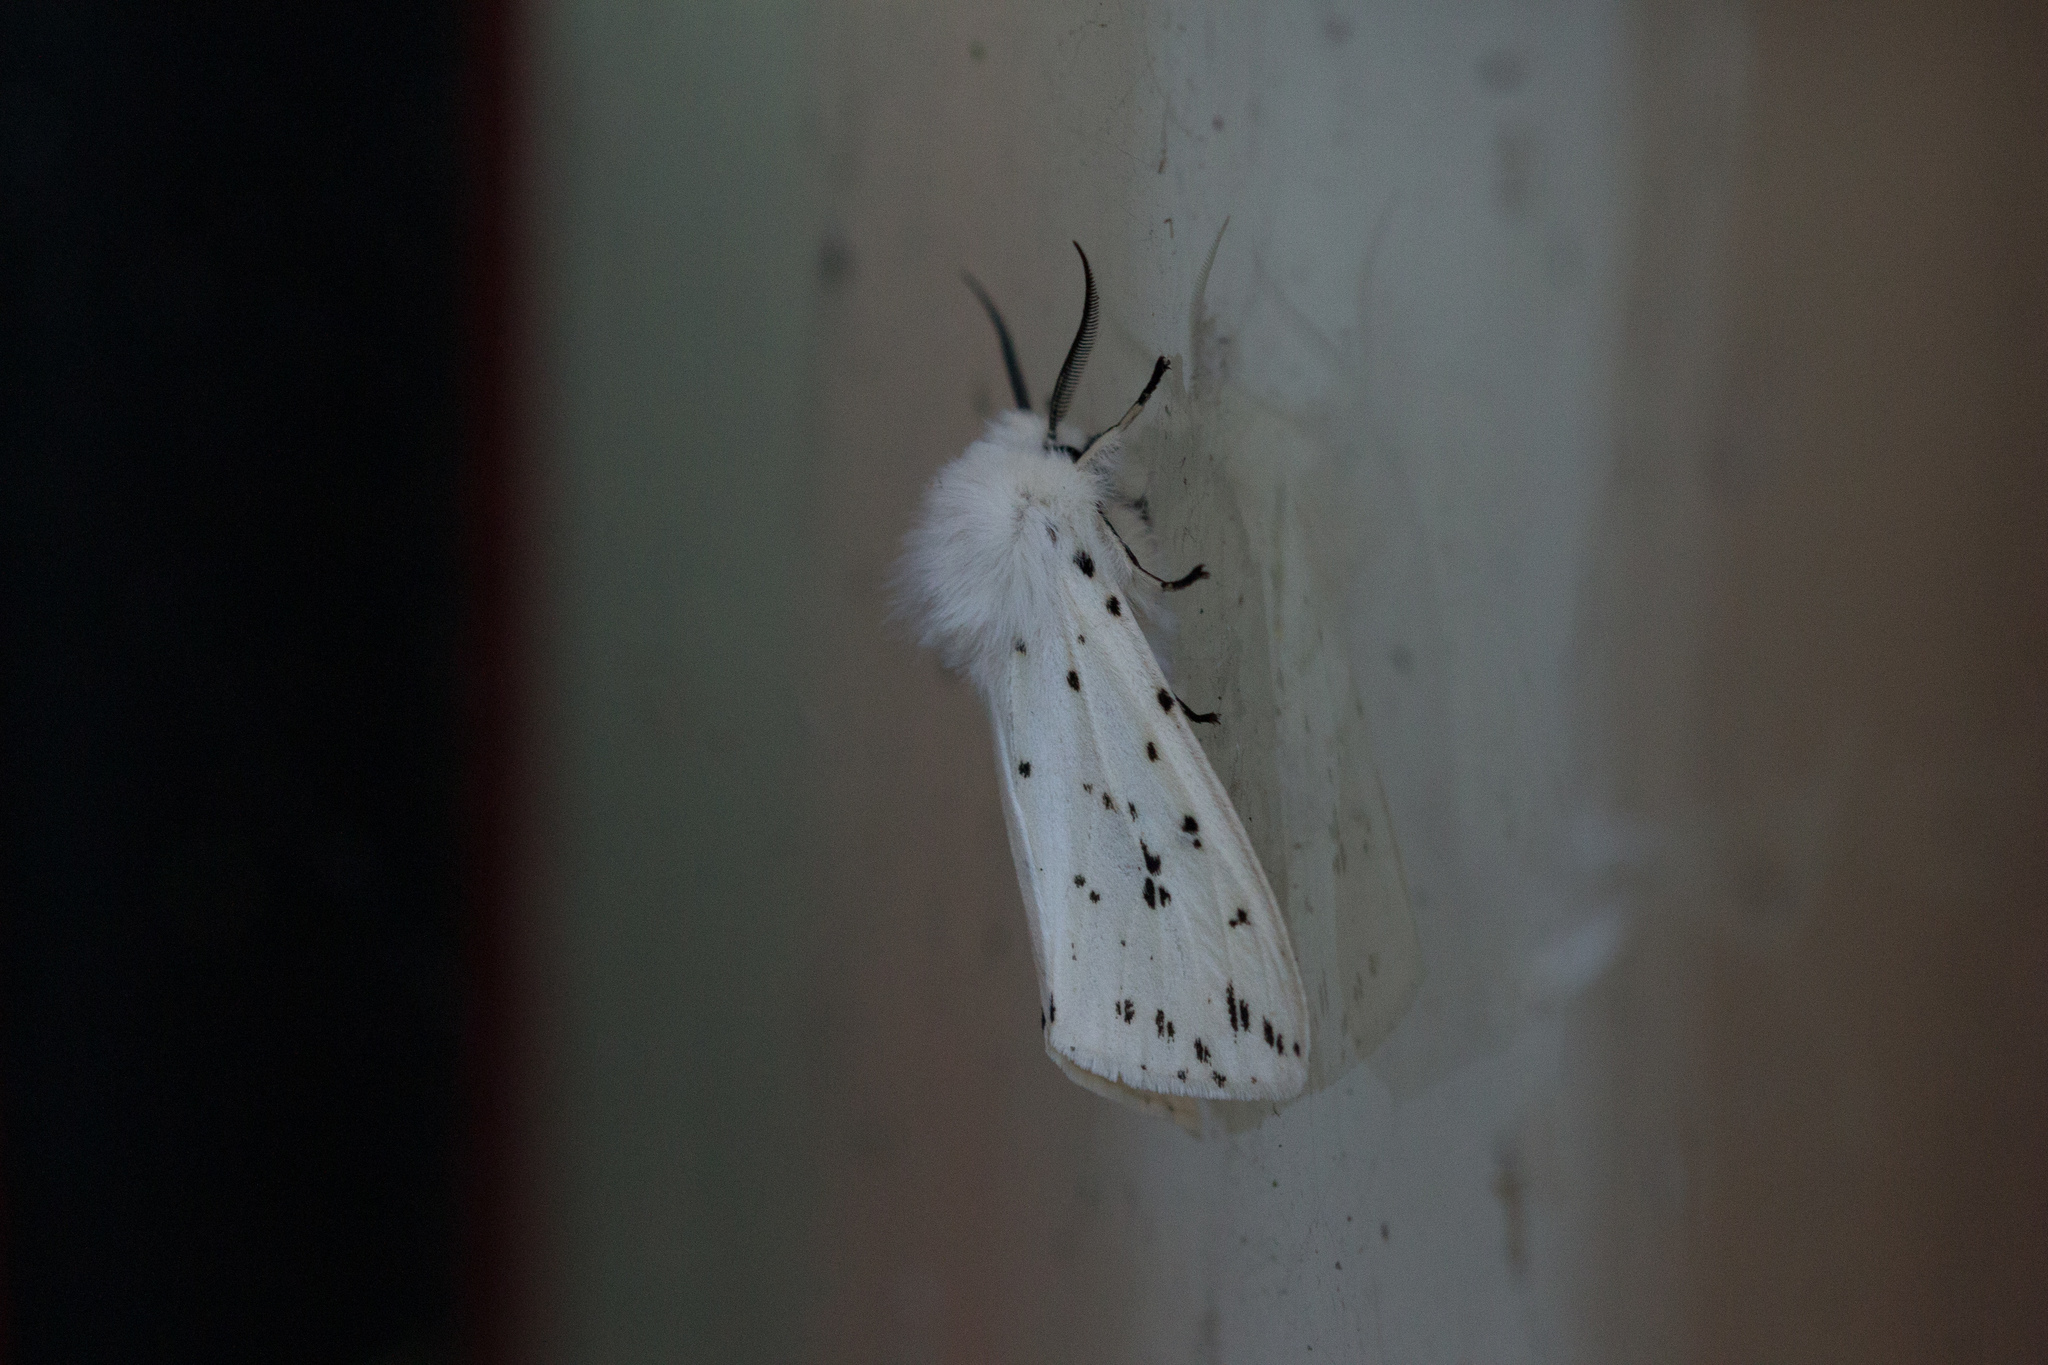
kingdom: Animalia
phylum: Arthropoda
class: Insecta
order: Lepidoptera
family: Erebidae
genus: Spilosoma
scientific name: Spilosoma lubricipeda
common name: White ermine
